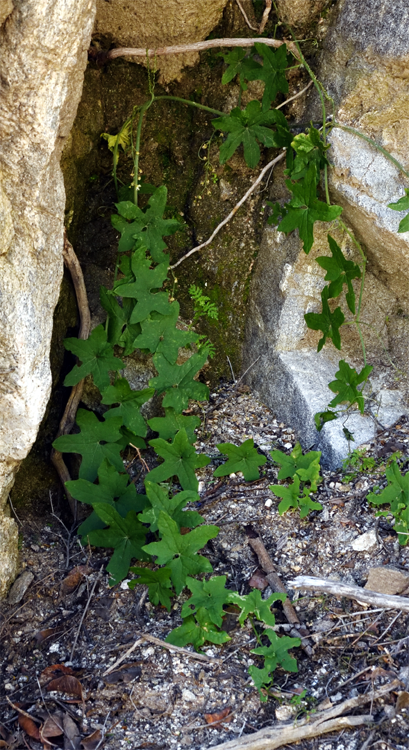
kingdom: Plantae
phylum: Tracheophyta
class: Magnoliopsida
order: Cucurbitales
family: Cucurbitaceae
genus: Marah
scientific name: Marah macrocarpa
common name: Cucamonga manroot
